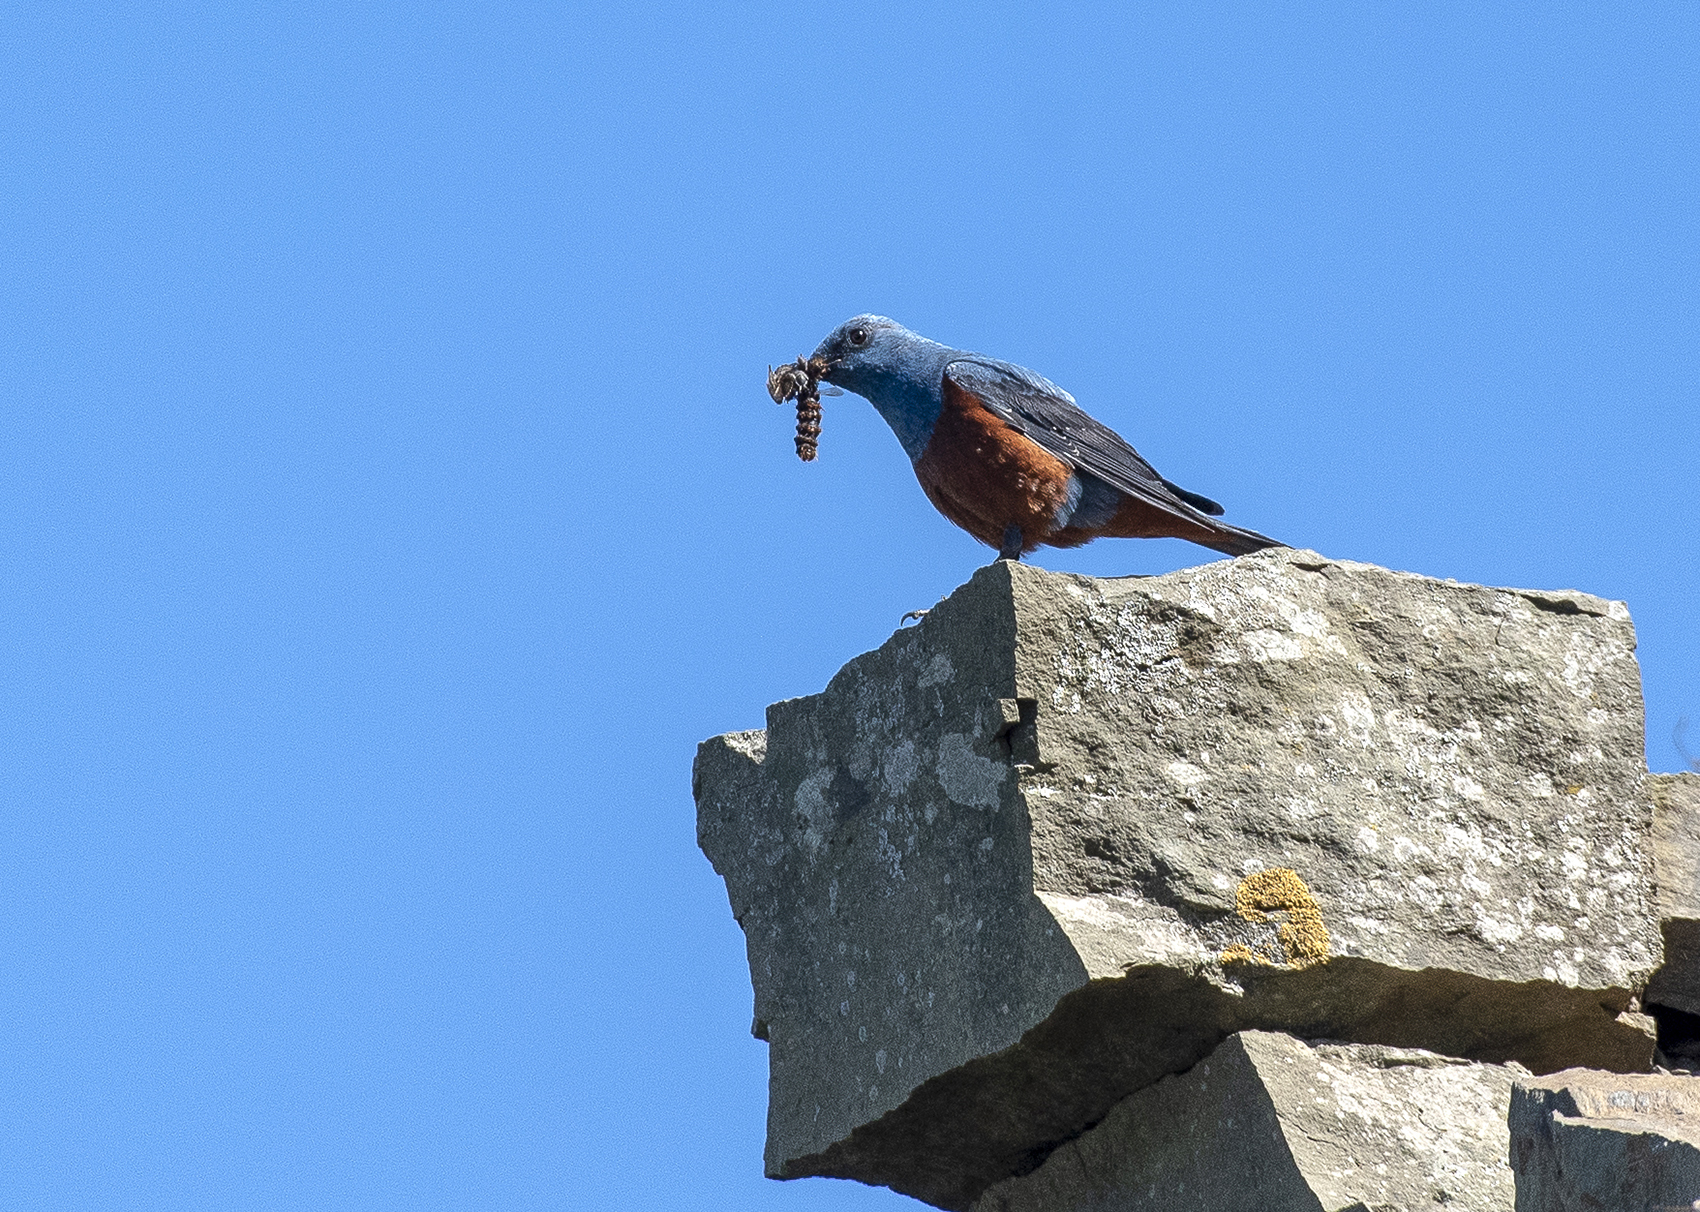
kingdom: Animalia
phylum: Chordata
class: Aves
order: Passeriformes
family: Muscicapidae
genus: Monticola
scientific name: Monticola solitarius
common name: Blue rock thrush
